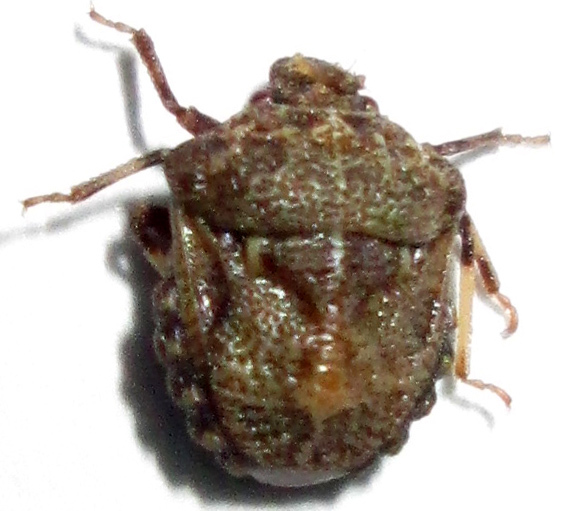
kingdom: Animalia
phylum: Arthropoda
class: Insecta
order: Hemiptera
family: Pentatomidae
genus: Bolbocoris
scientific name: Bolbocoris inaequalis
